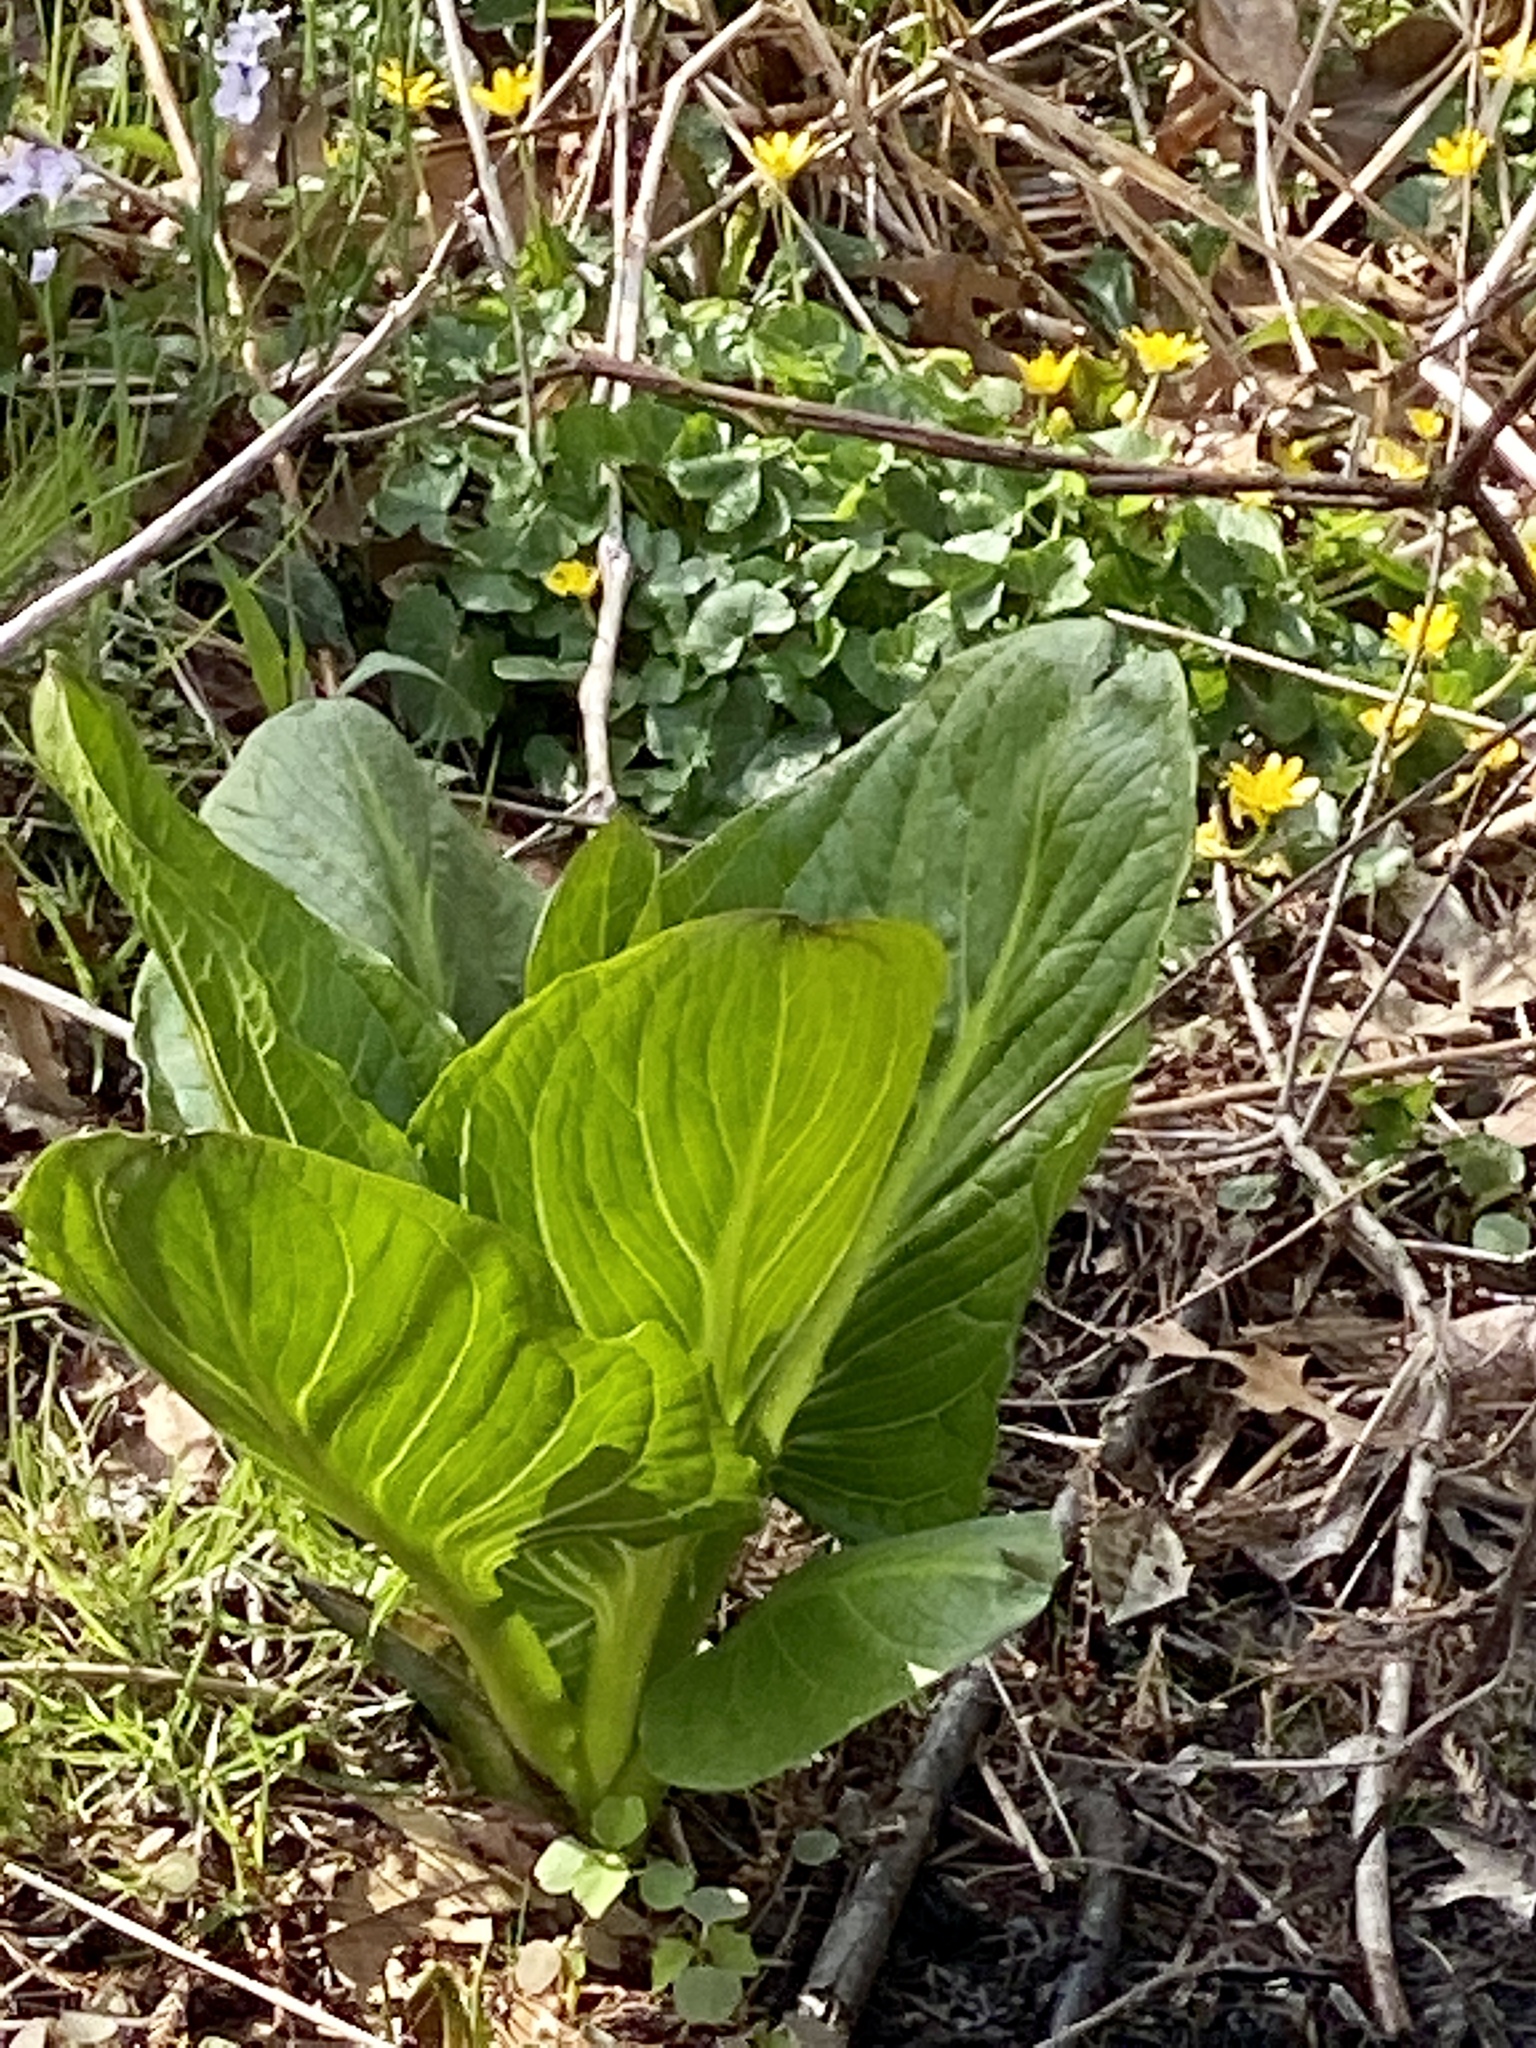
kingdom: Plantae
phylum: Tracheophyta
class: Liliopsida
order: Alismatales
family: Araceae
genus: Symplocarpus
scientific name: Symplocarpus foetidus
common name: Eastern skunk cabbage
